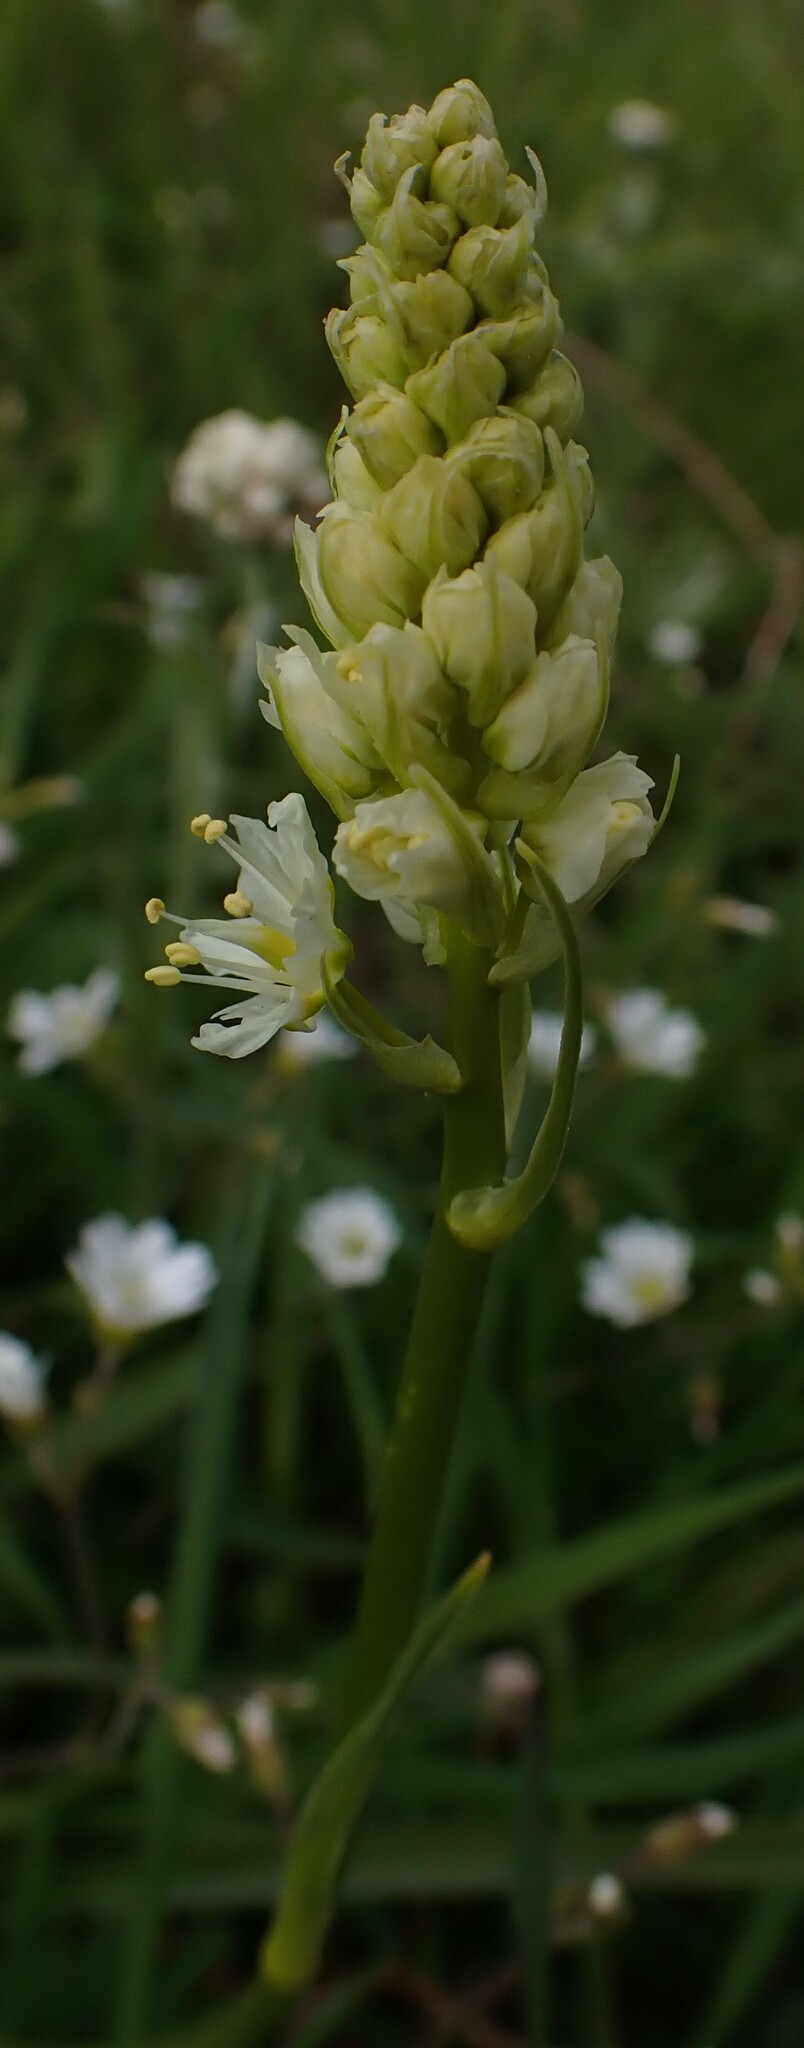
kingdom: Plantae
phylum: Tracheophyta
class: Liliopsida
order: Liliales
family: Melanthiaceae
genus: Toxicoscordion
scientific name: Toxicoscordion venenosum
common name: Meadow death camas
